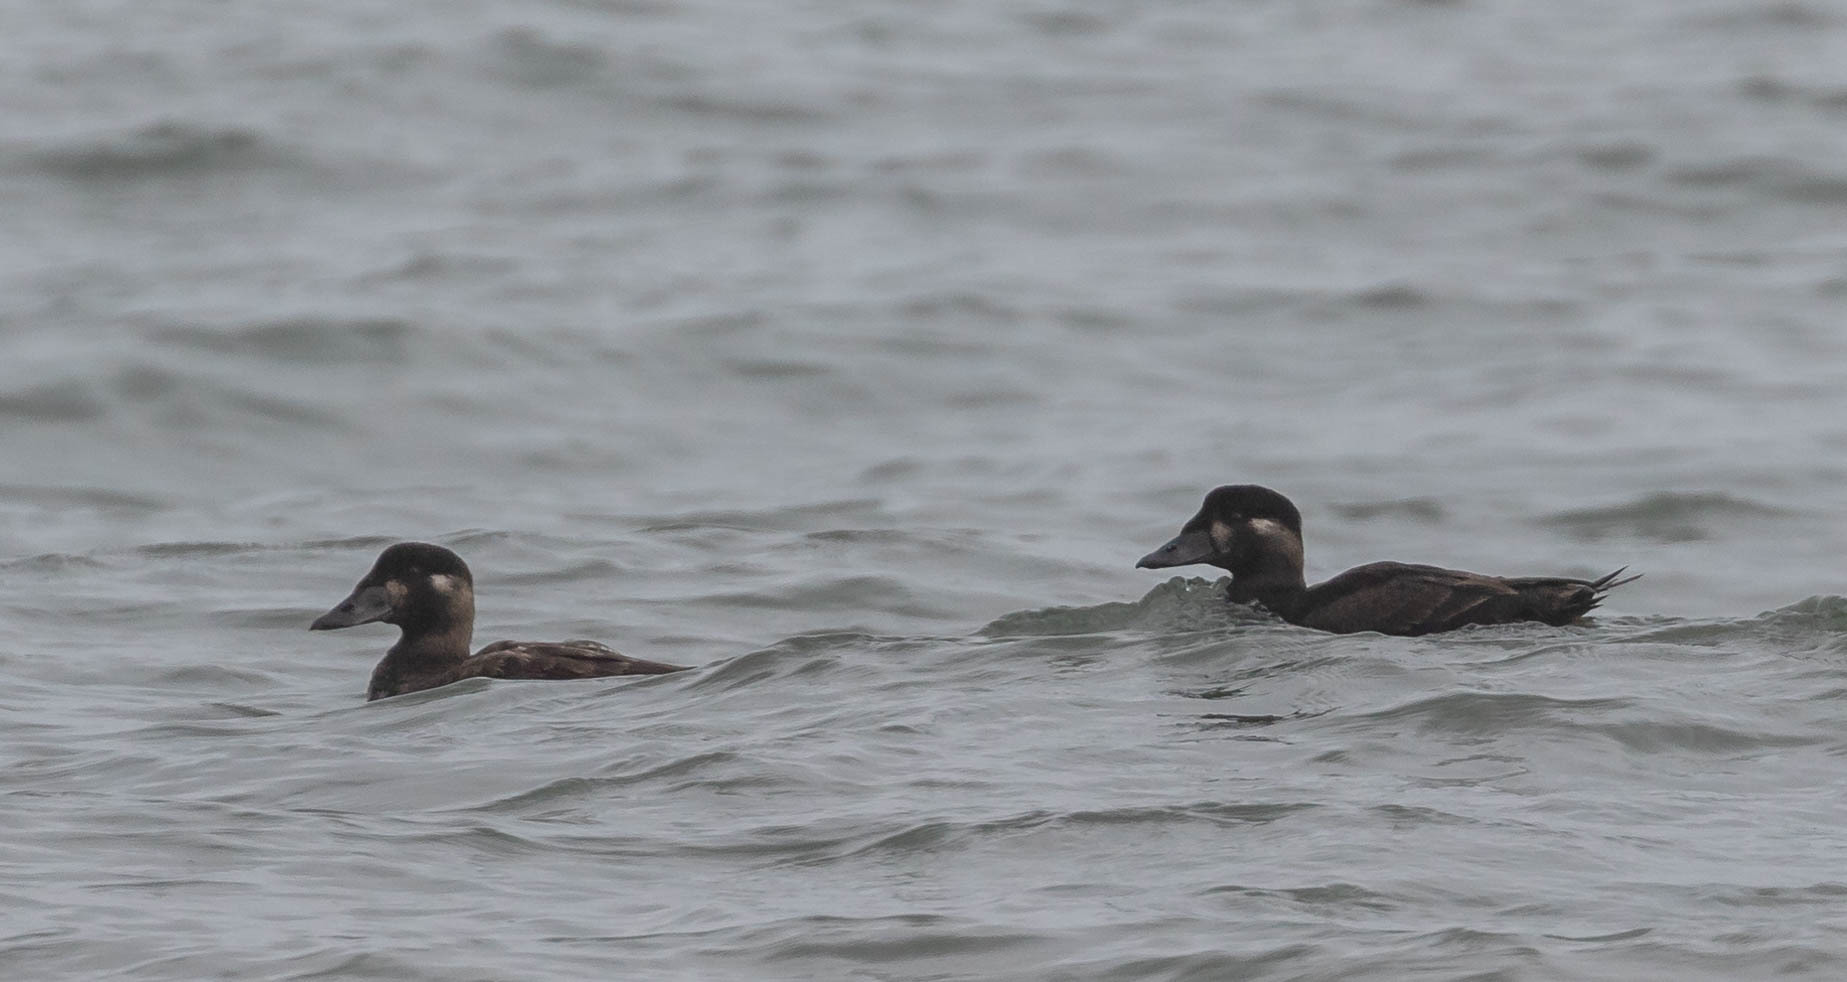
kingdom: Animalia
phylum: Chordata
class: Aves
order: Anseriformes
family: Anatidae
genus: Melanitta
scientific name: Melanitta perspicillata
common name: Surf scoter
